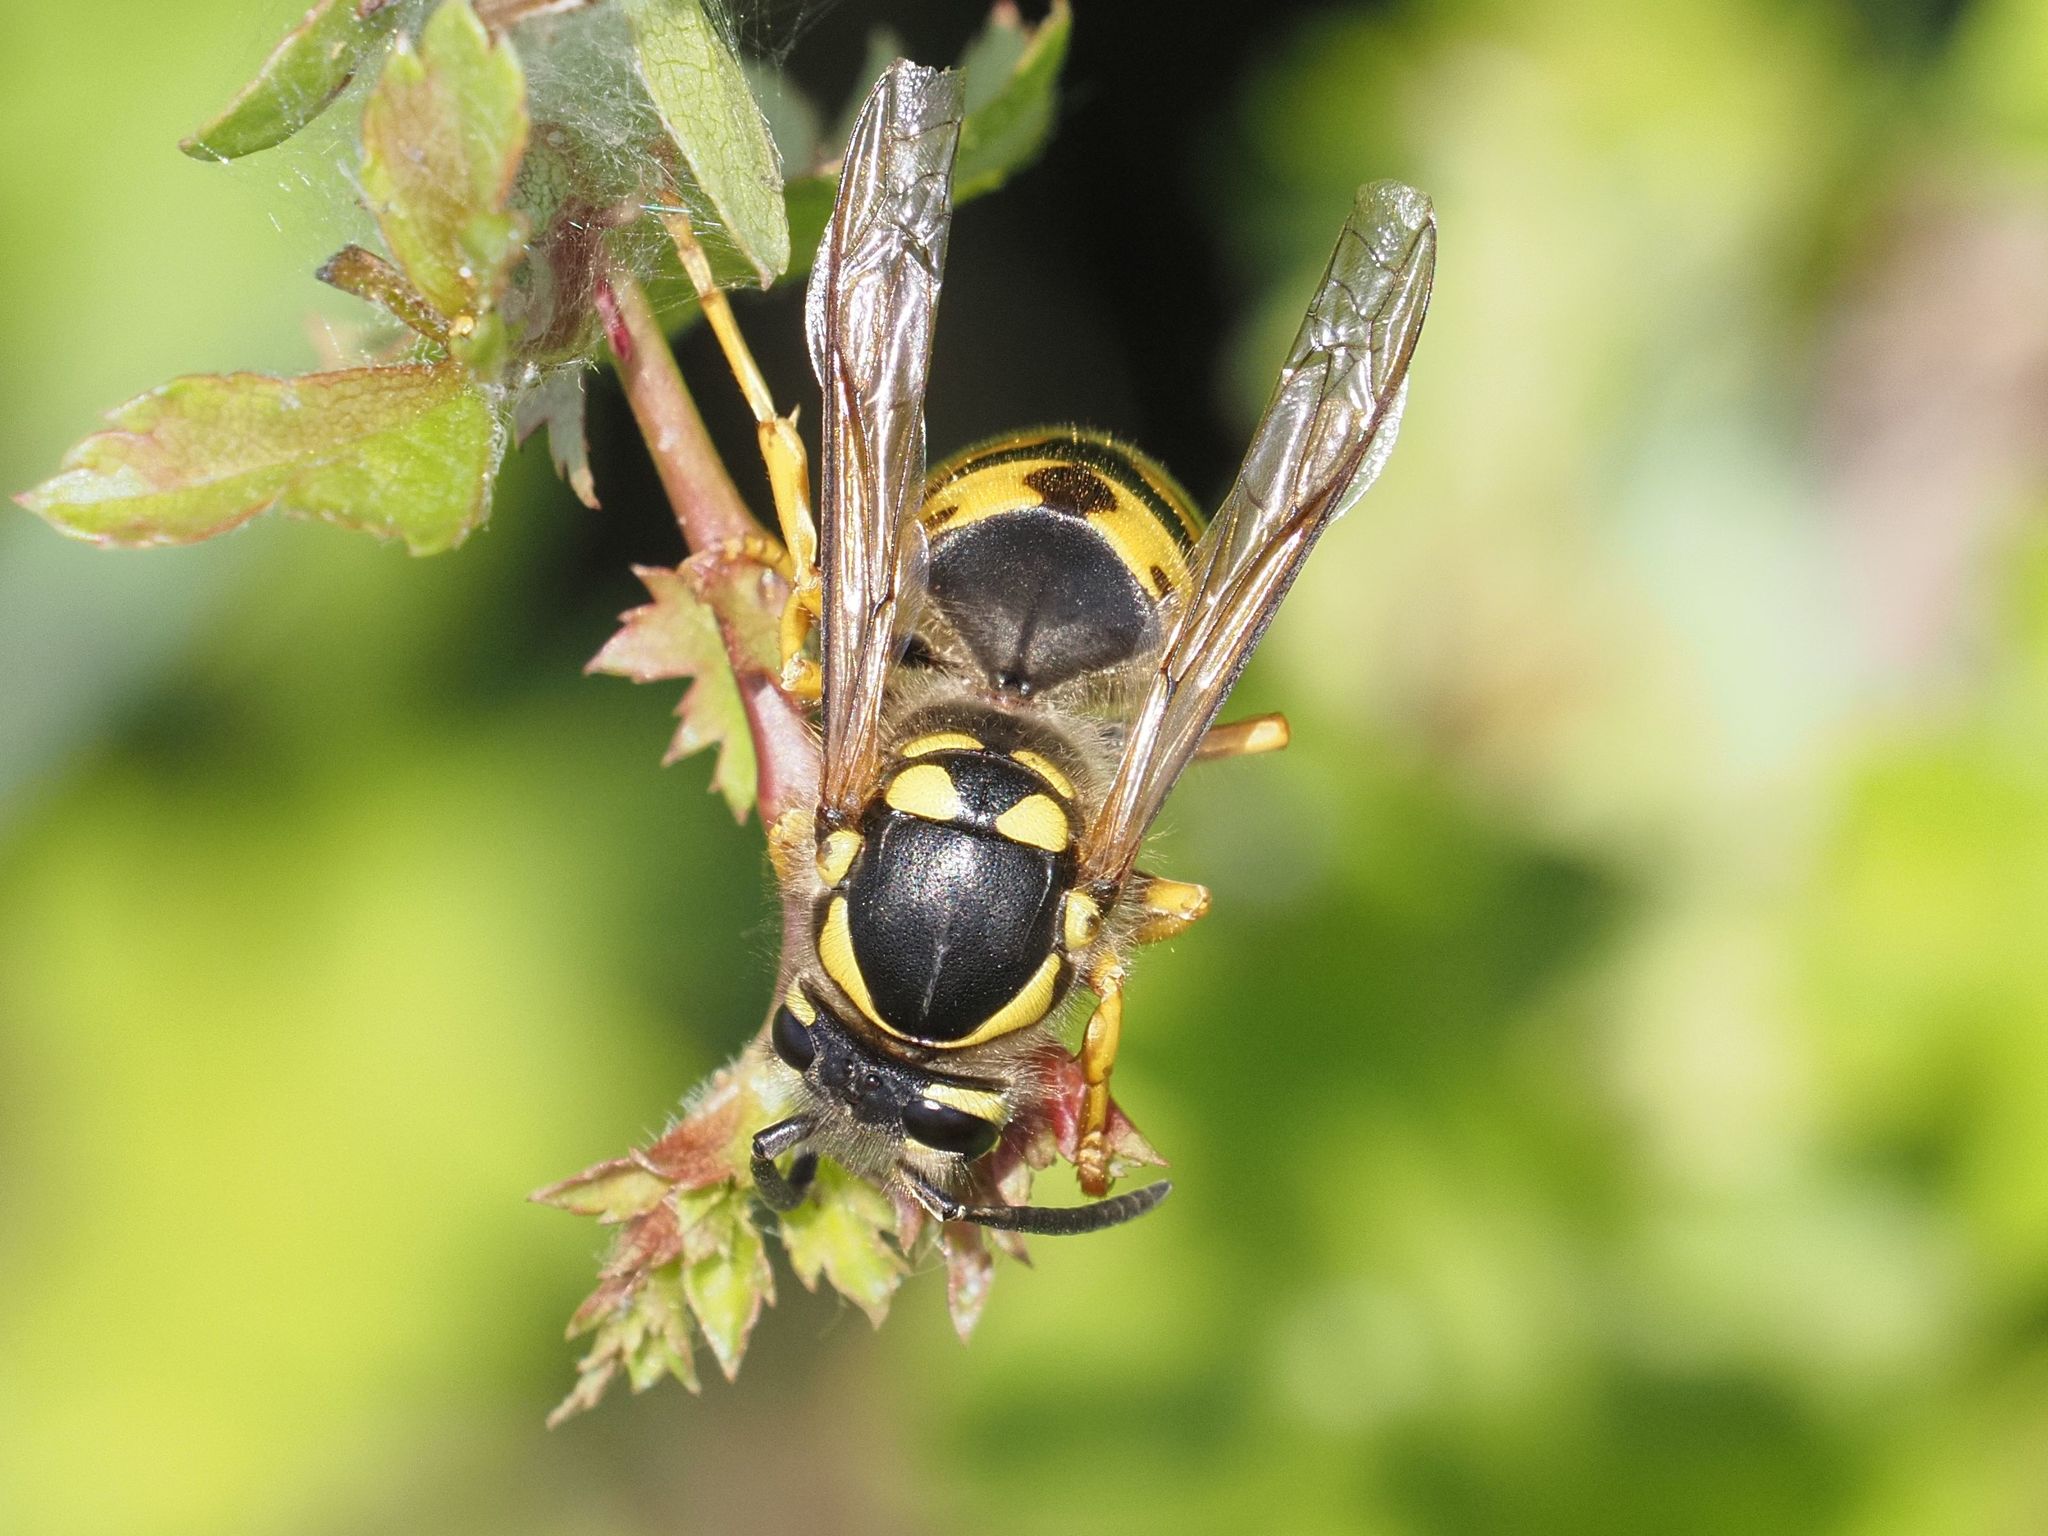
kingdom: Animalia
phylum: Arthropoda
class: Insecta
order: Hymenoptera
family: Vespidae
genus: Vespula
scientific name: Vespula germanica
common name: German wasp
